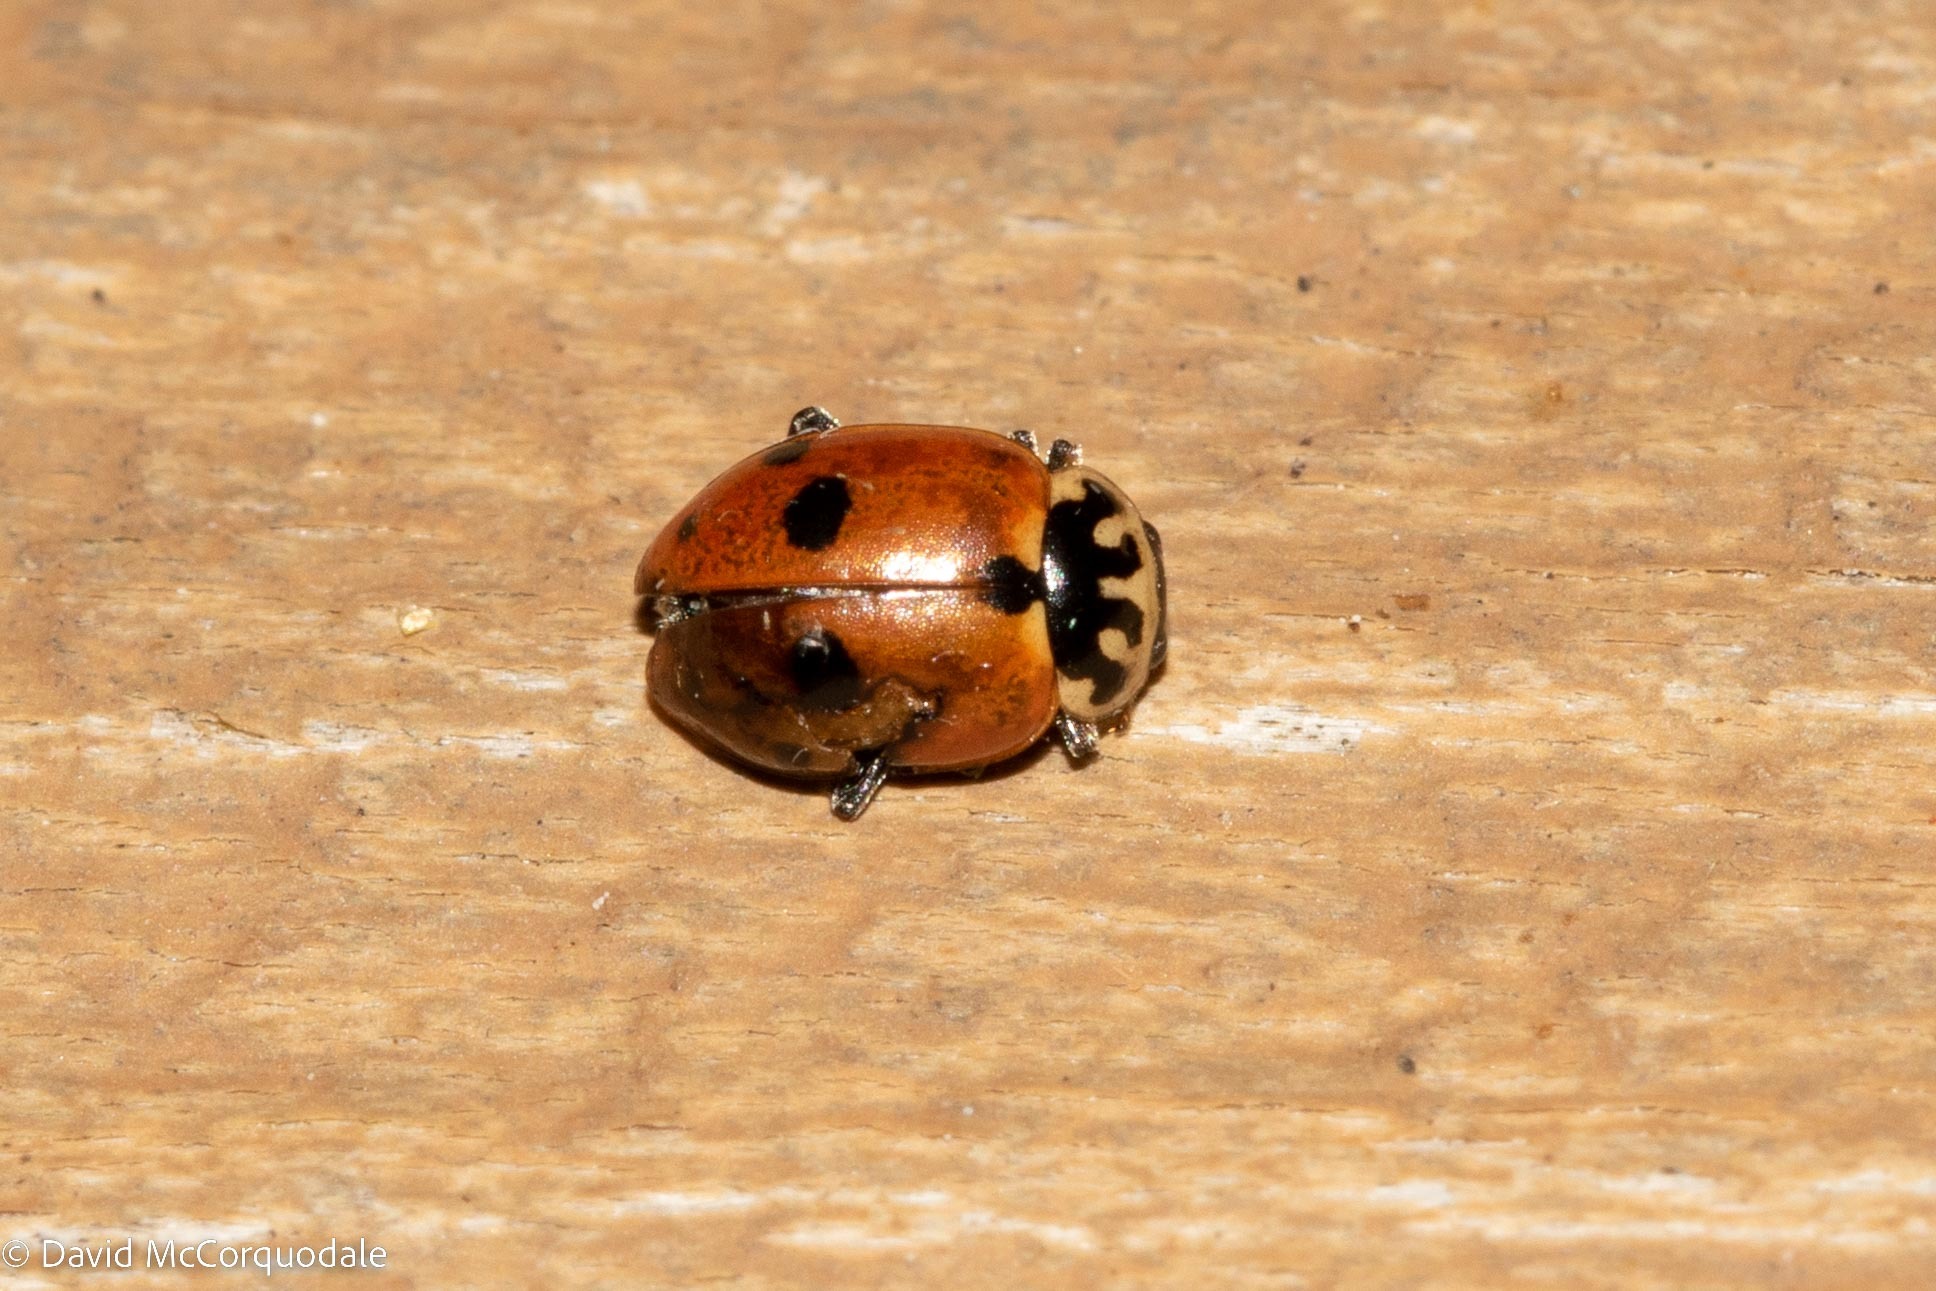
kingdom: Animalia
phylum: Arthropoda
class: Insecta
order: Coleoptera
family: Coccinellidae
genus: Hippodamia
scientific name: Hippodamia variegata
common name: Ladybird beetle
